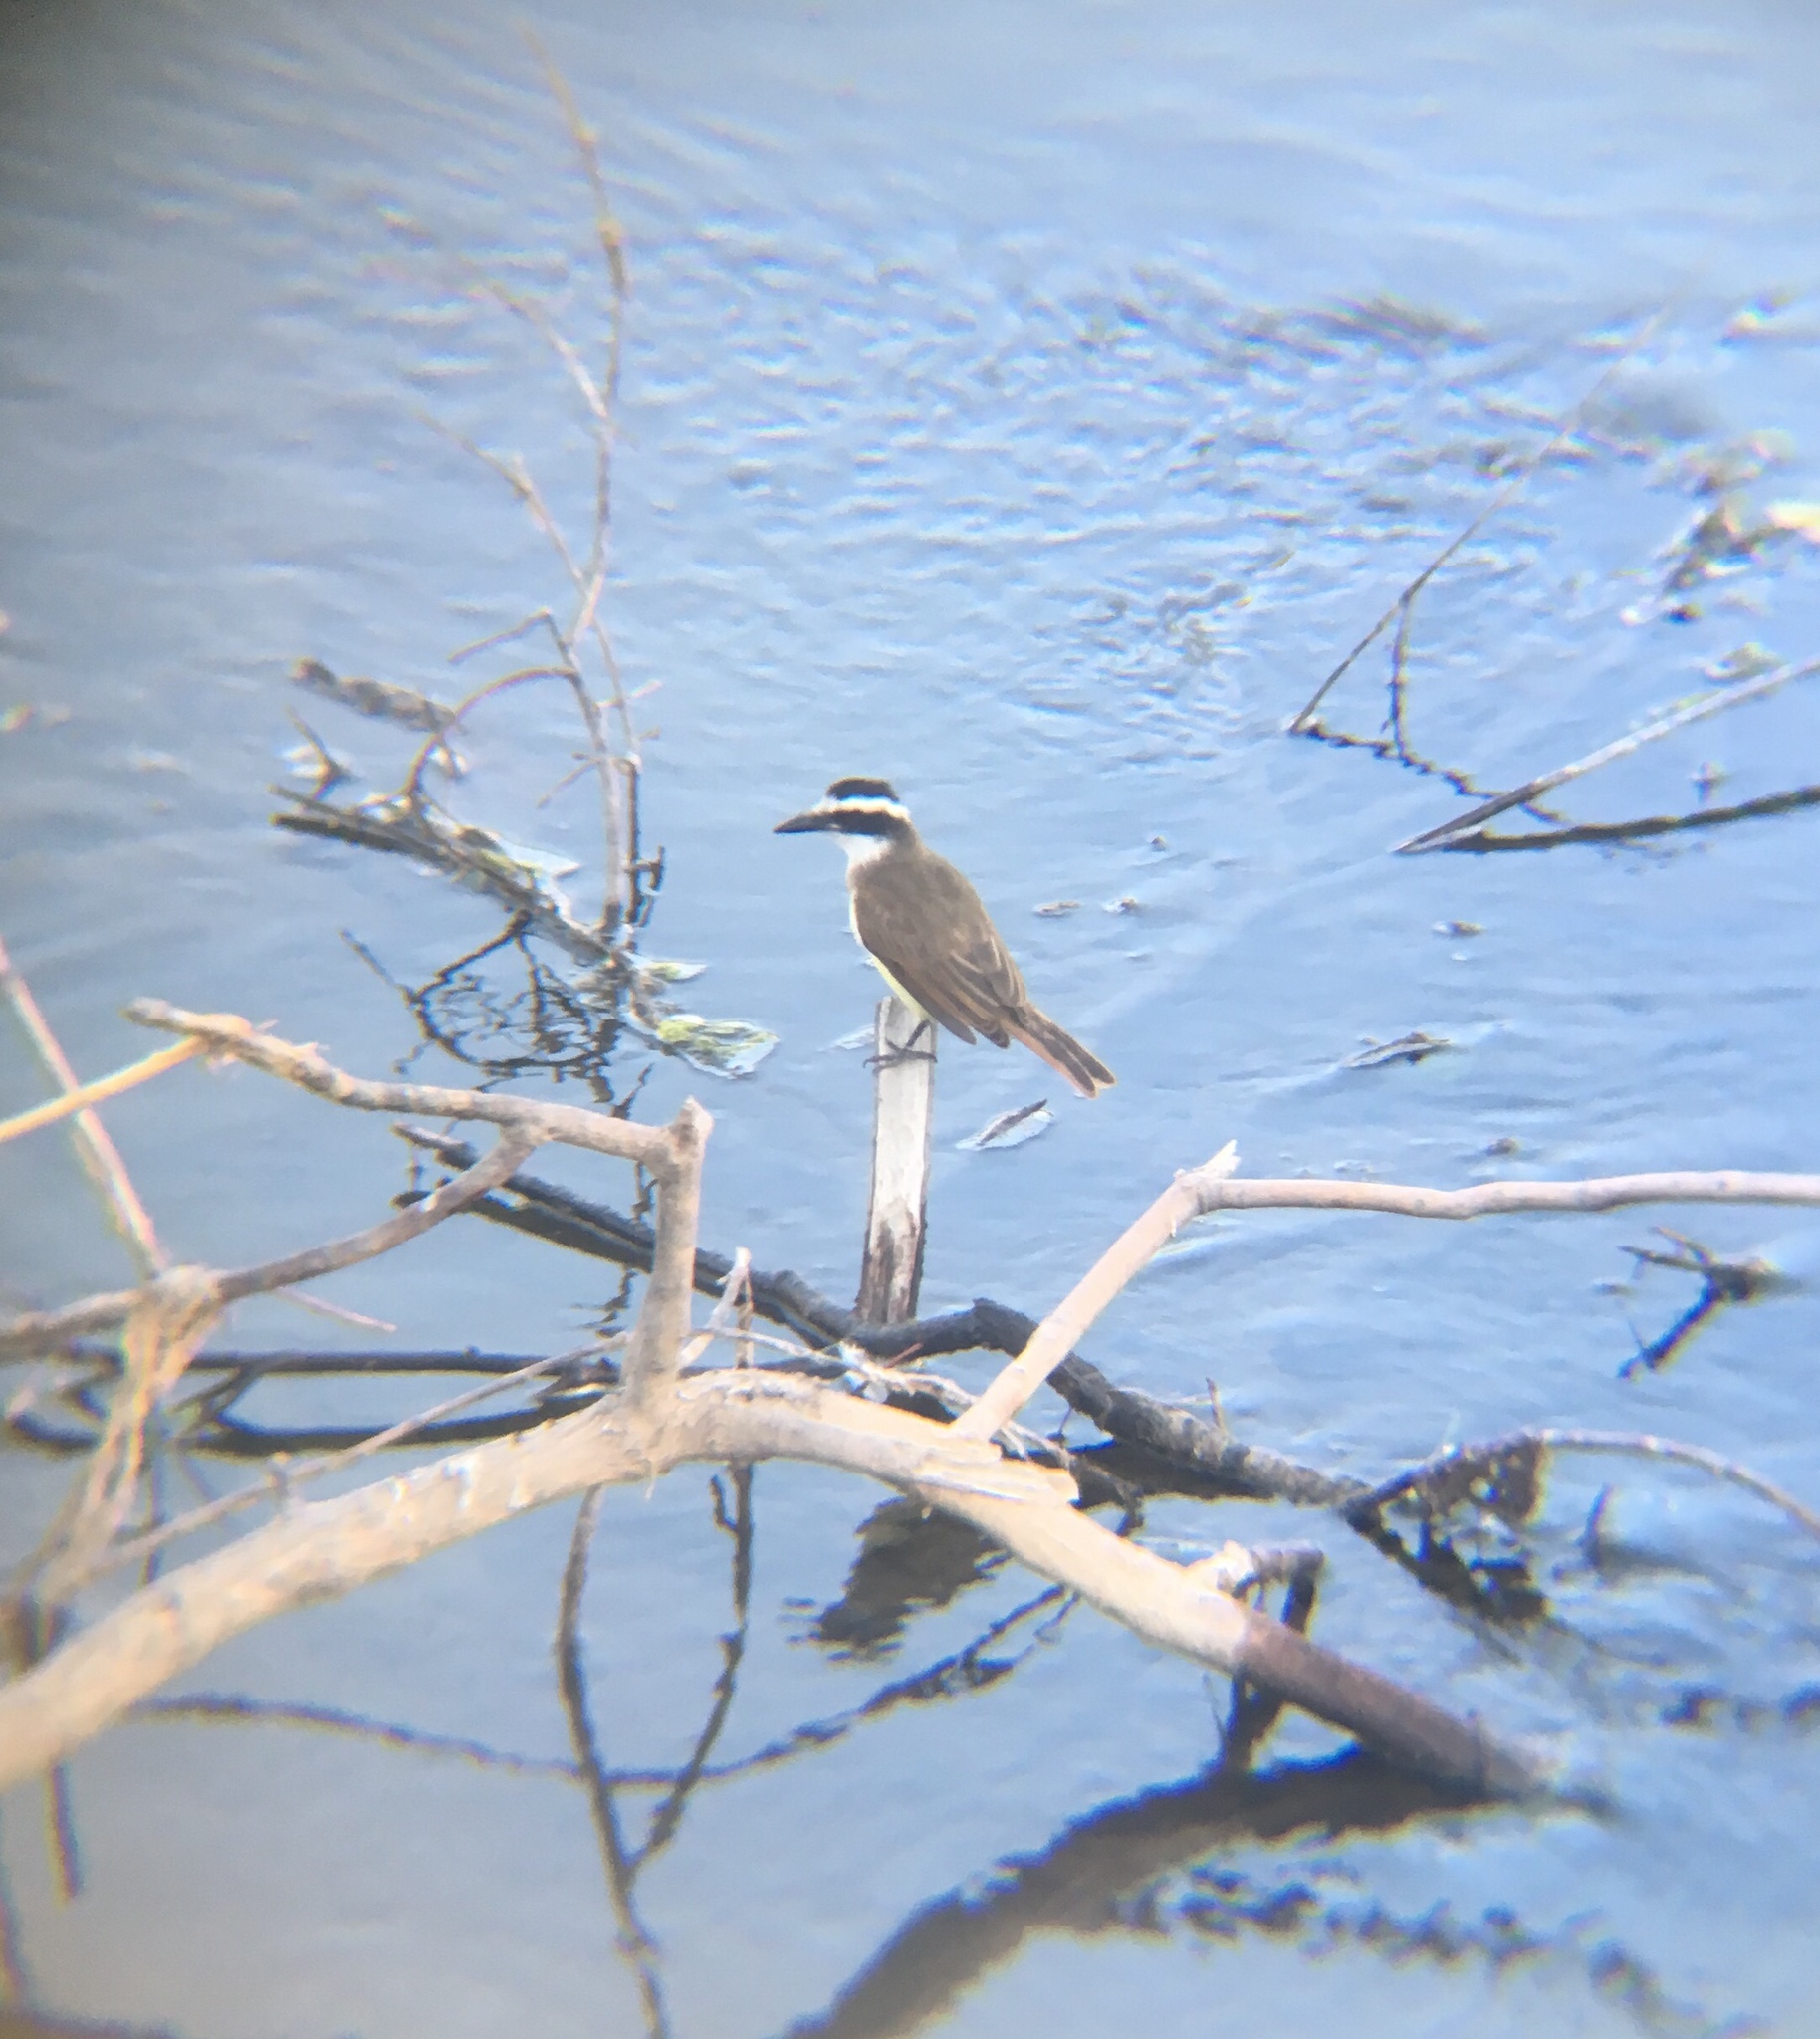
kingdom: Animalia
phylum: Chordata
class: Aves
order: Passeriformes
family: Tyrannidae
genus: Pitangus
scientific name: Pitangus sulphuratus
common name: Great kiskadee
